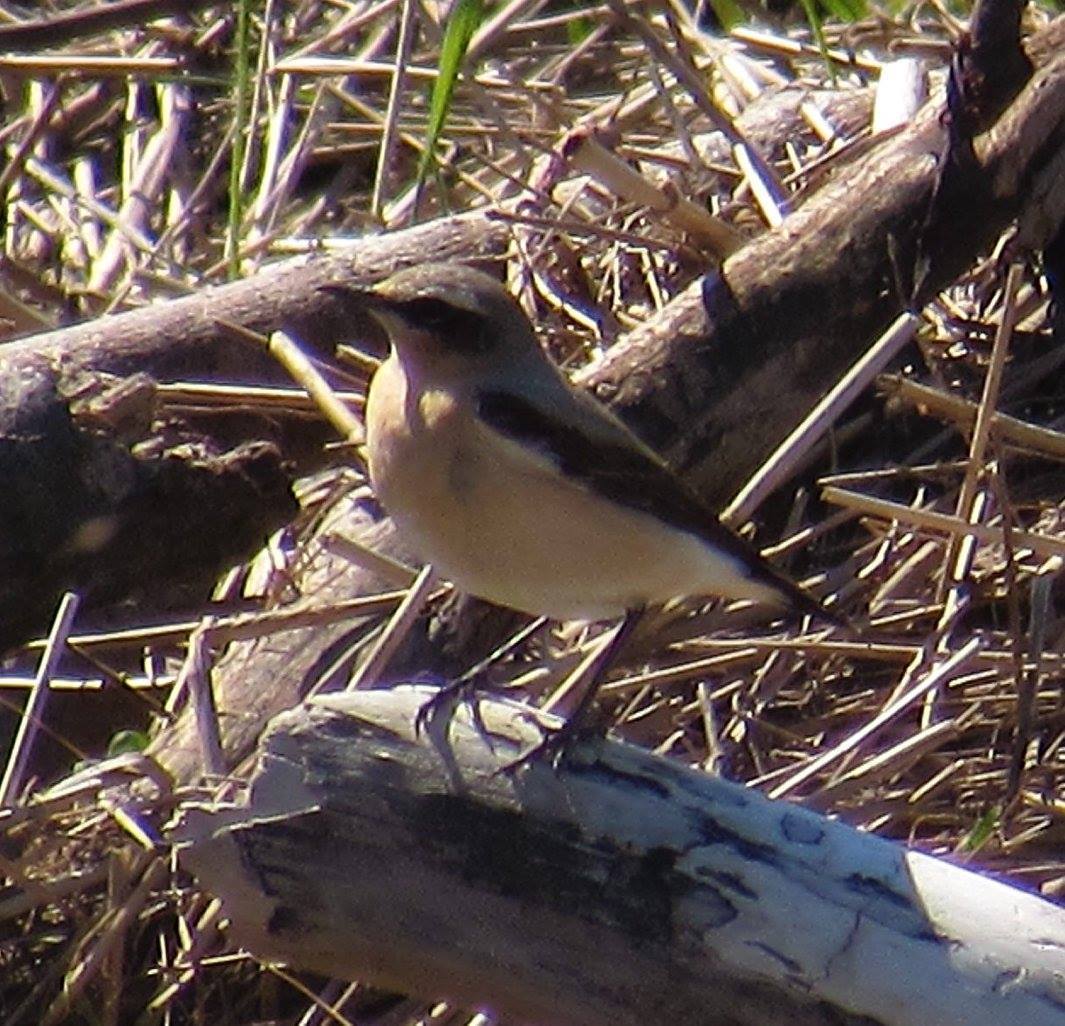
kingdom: Animalia
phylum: Chordata
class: Aves
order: Passeriformes
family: Muscicapidae
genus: Oenanthe
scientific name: Oenanthe oenanthe
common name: Northern wheatear
